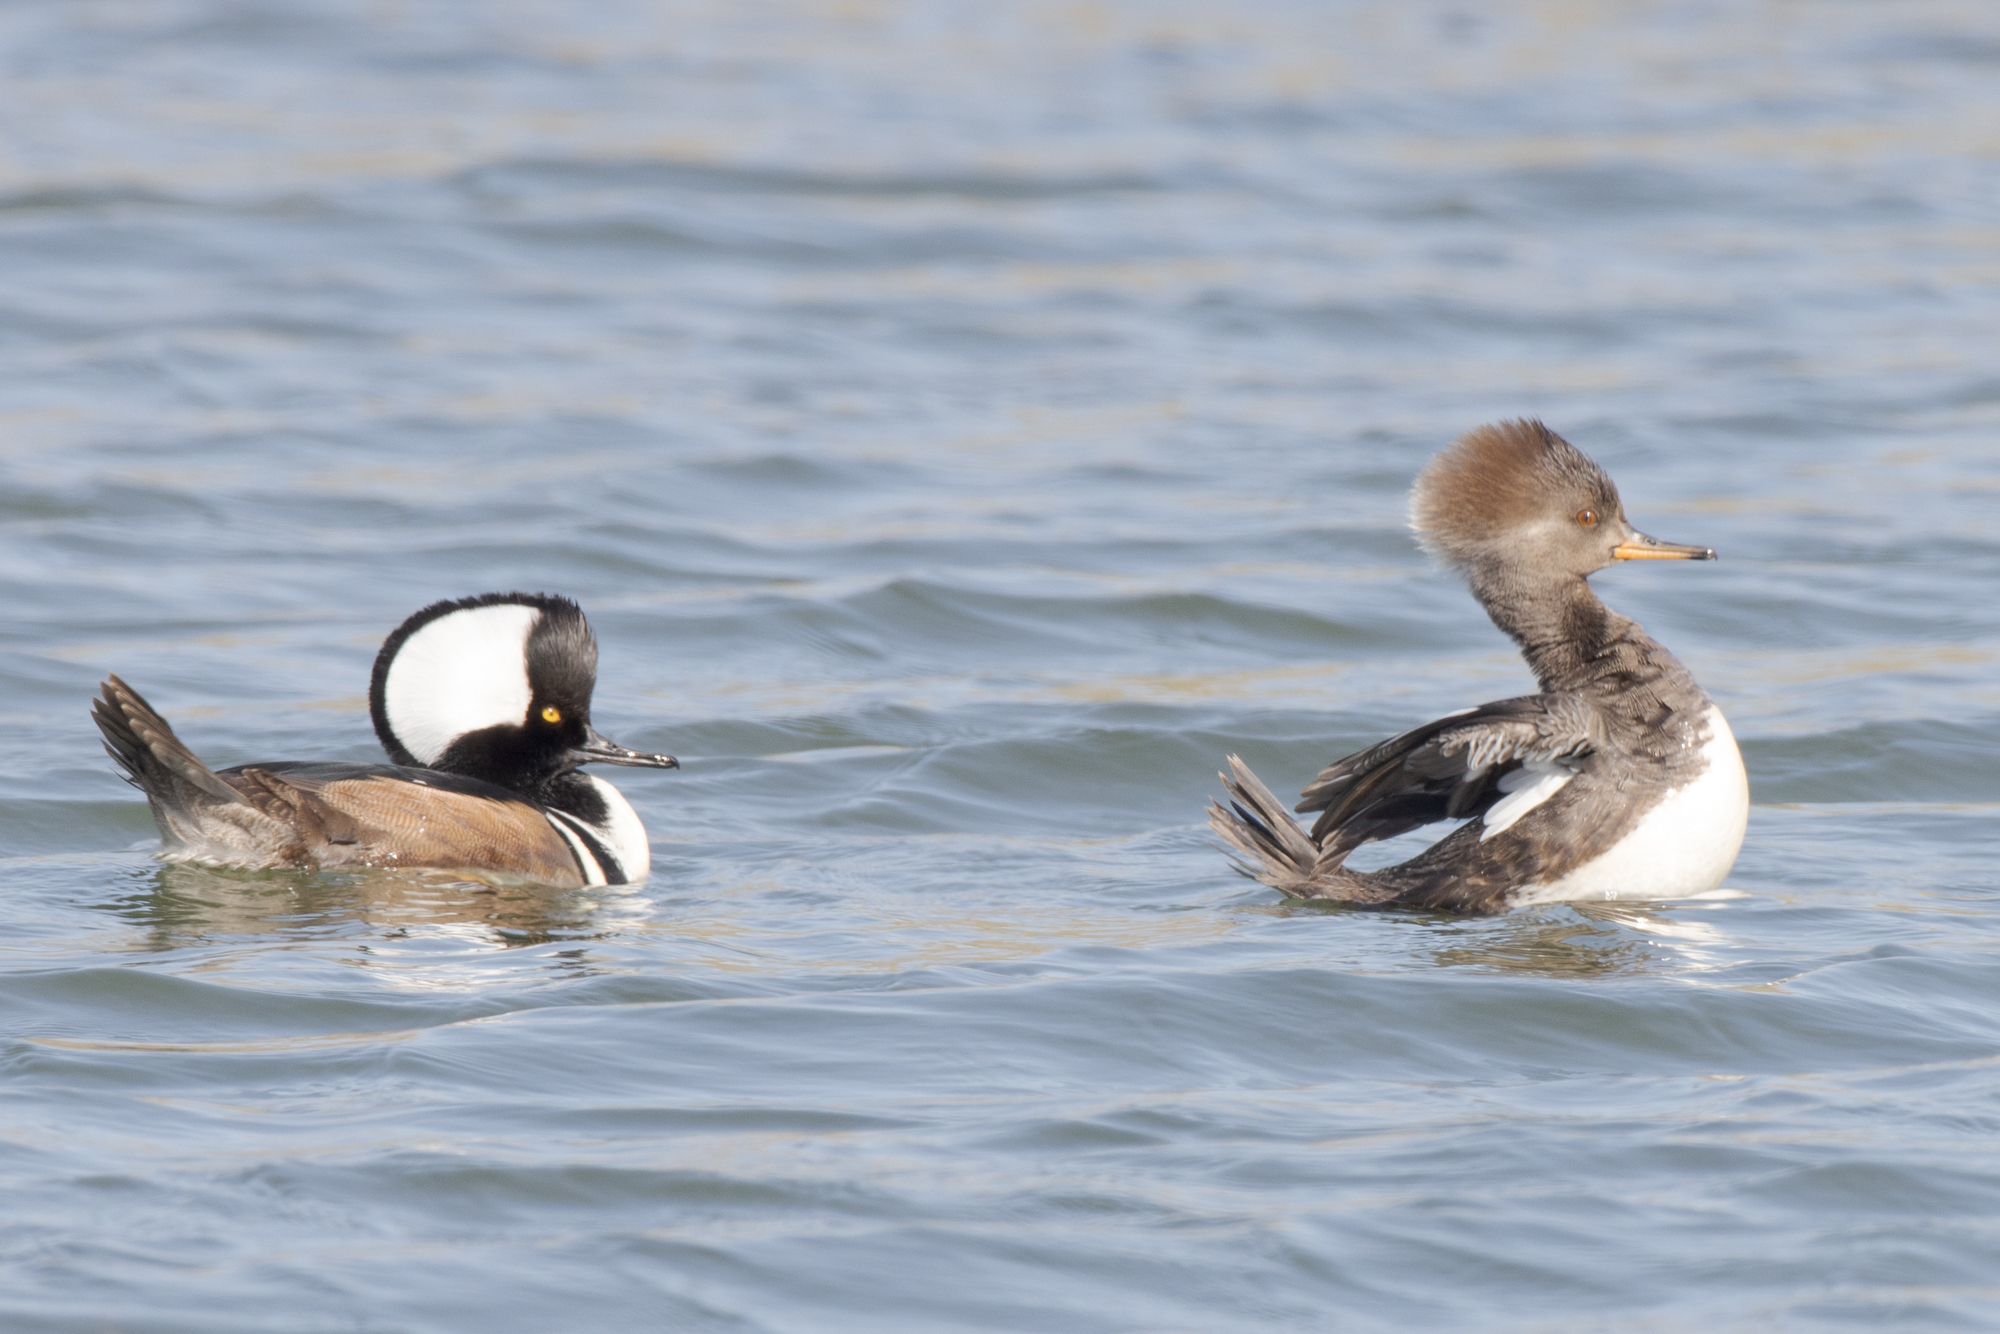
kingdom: Animalia
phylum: Chordata
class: Aves
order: Anseriformes
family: Anatidae
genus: Lophodytes
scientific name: Lophodytes cucullatus
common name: Hooded merganser
